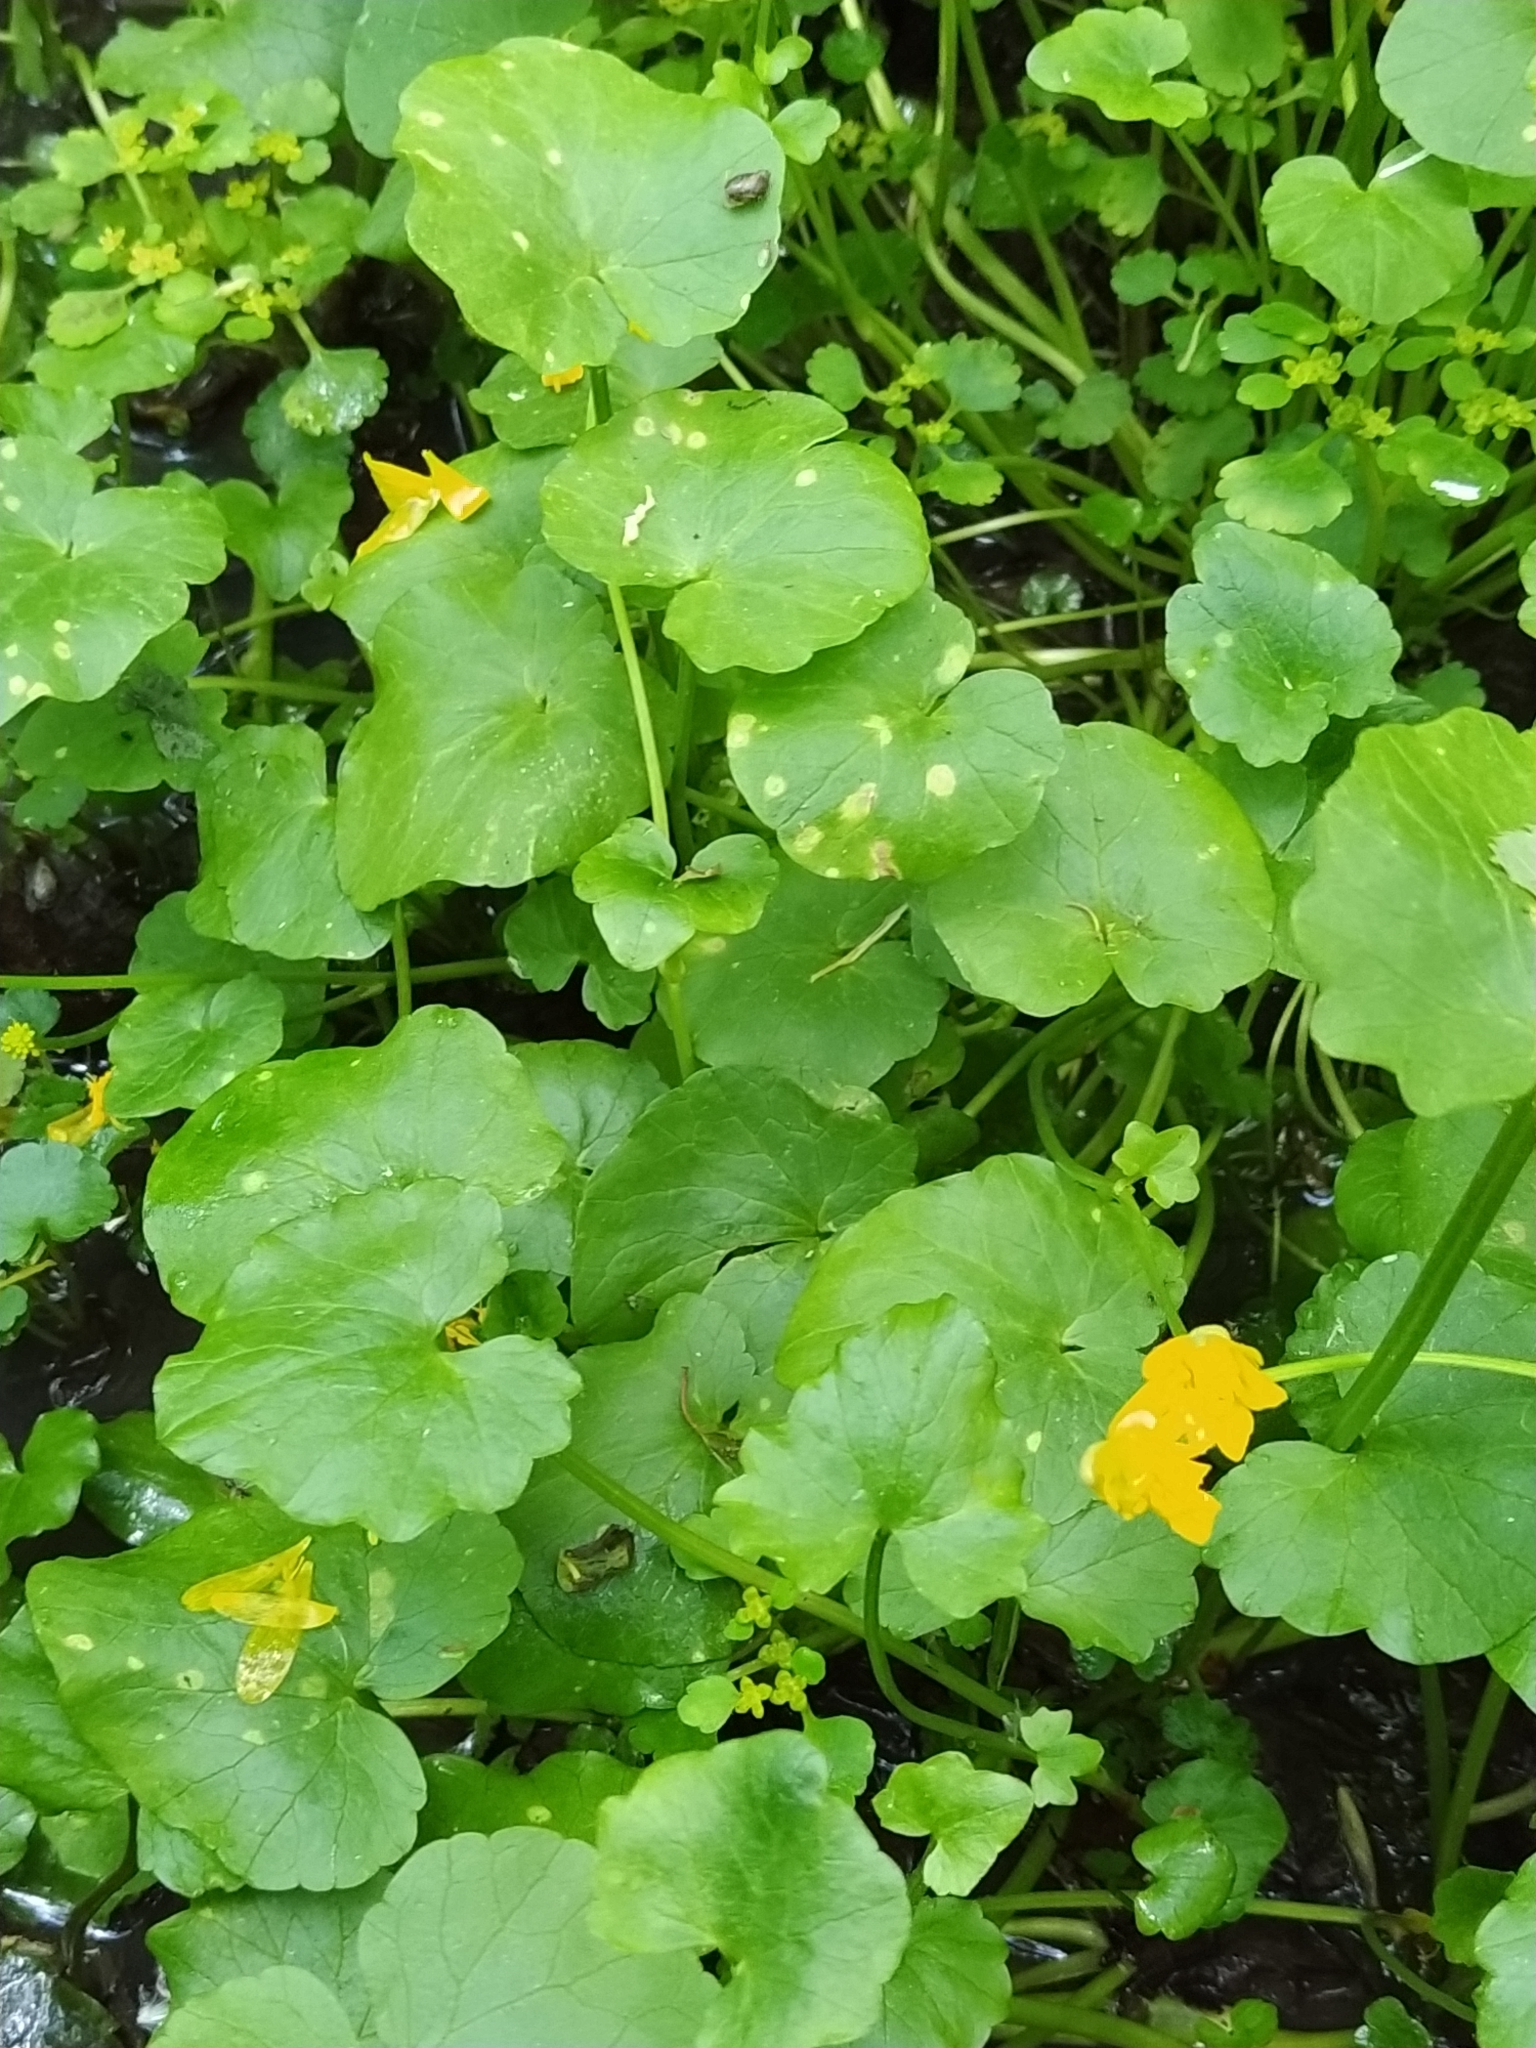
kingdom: Plantae
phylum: Tracheophyta
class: Magnoliopsida
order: Ranunculales
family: Ranunculaceae
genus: Ficaria
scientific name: Ficaria verna
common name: Lesser celandine
